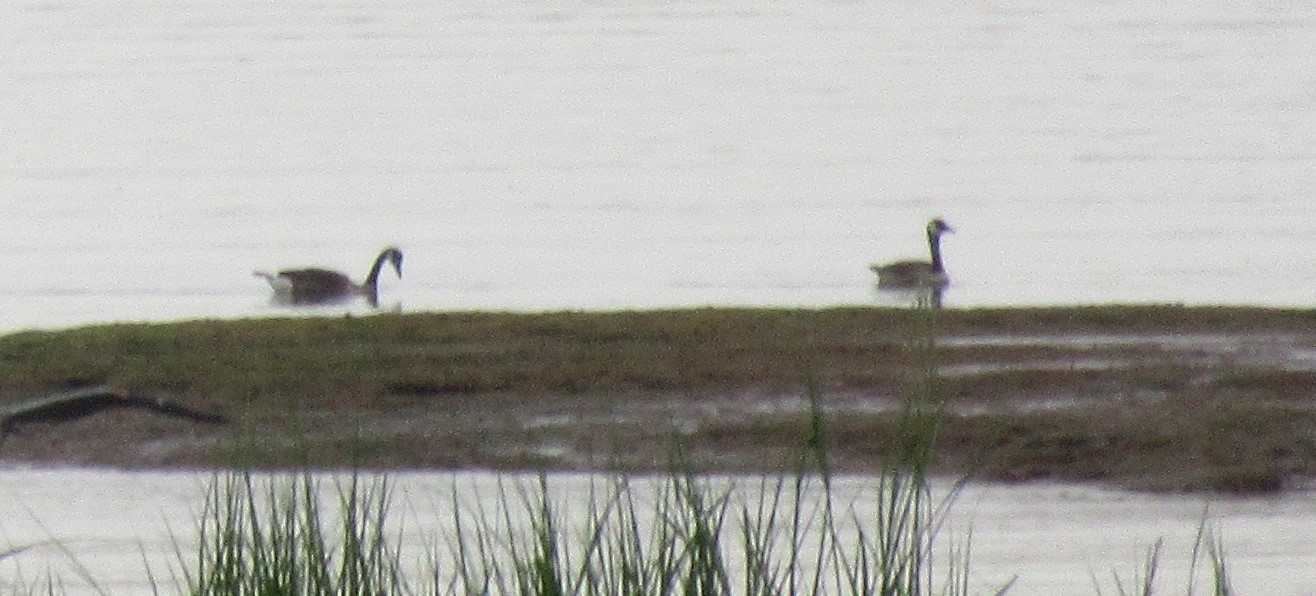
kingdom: Animalia
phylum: Chordata
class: Aves
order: Anseriformes
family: Anatidae
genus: Branta
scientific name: Branta canadensis
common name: Canada goose
